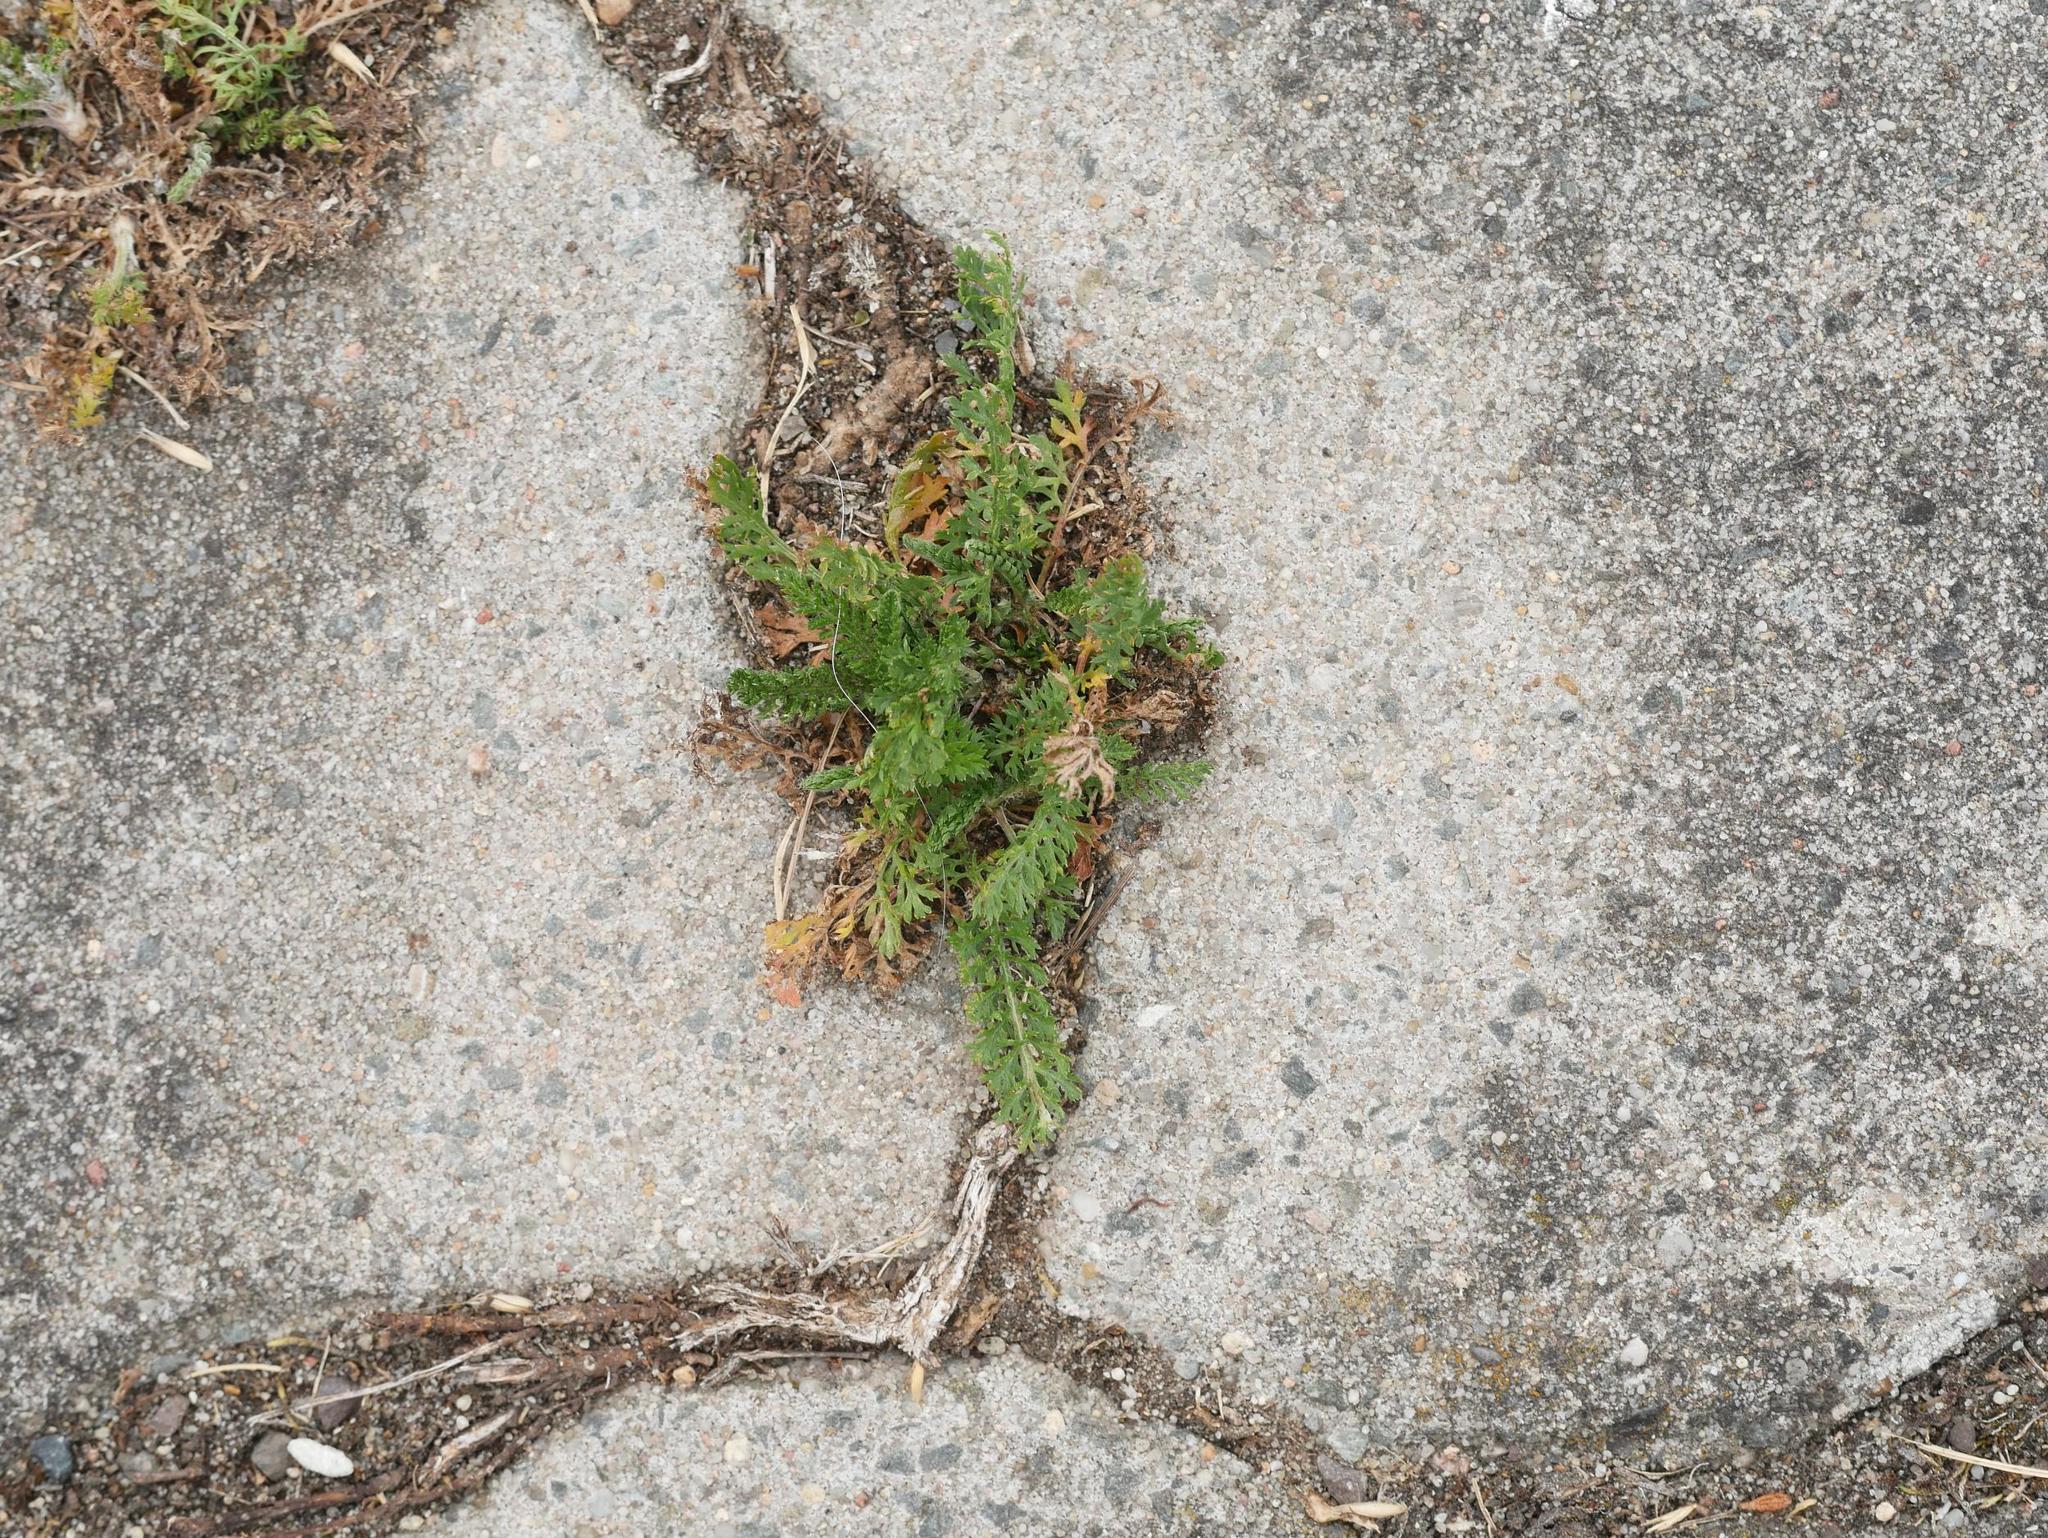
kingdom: Plantae
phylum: Tracheophyta
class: Magnoliopsida
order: Asterales
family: Asteraceae
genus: Achillea
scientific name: Achillea millefolium
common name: Yarrow
